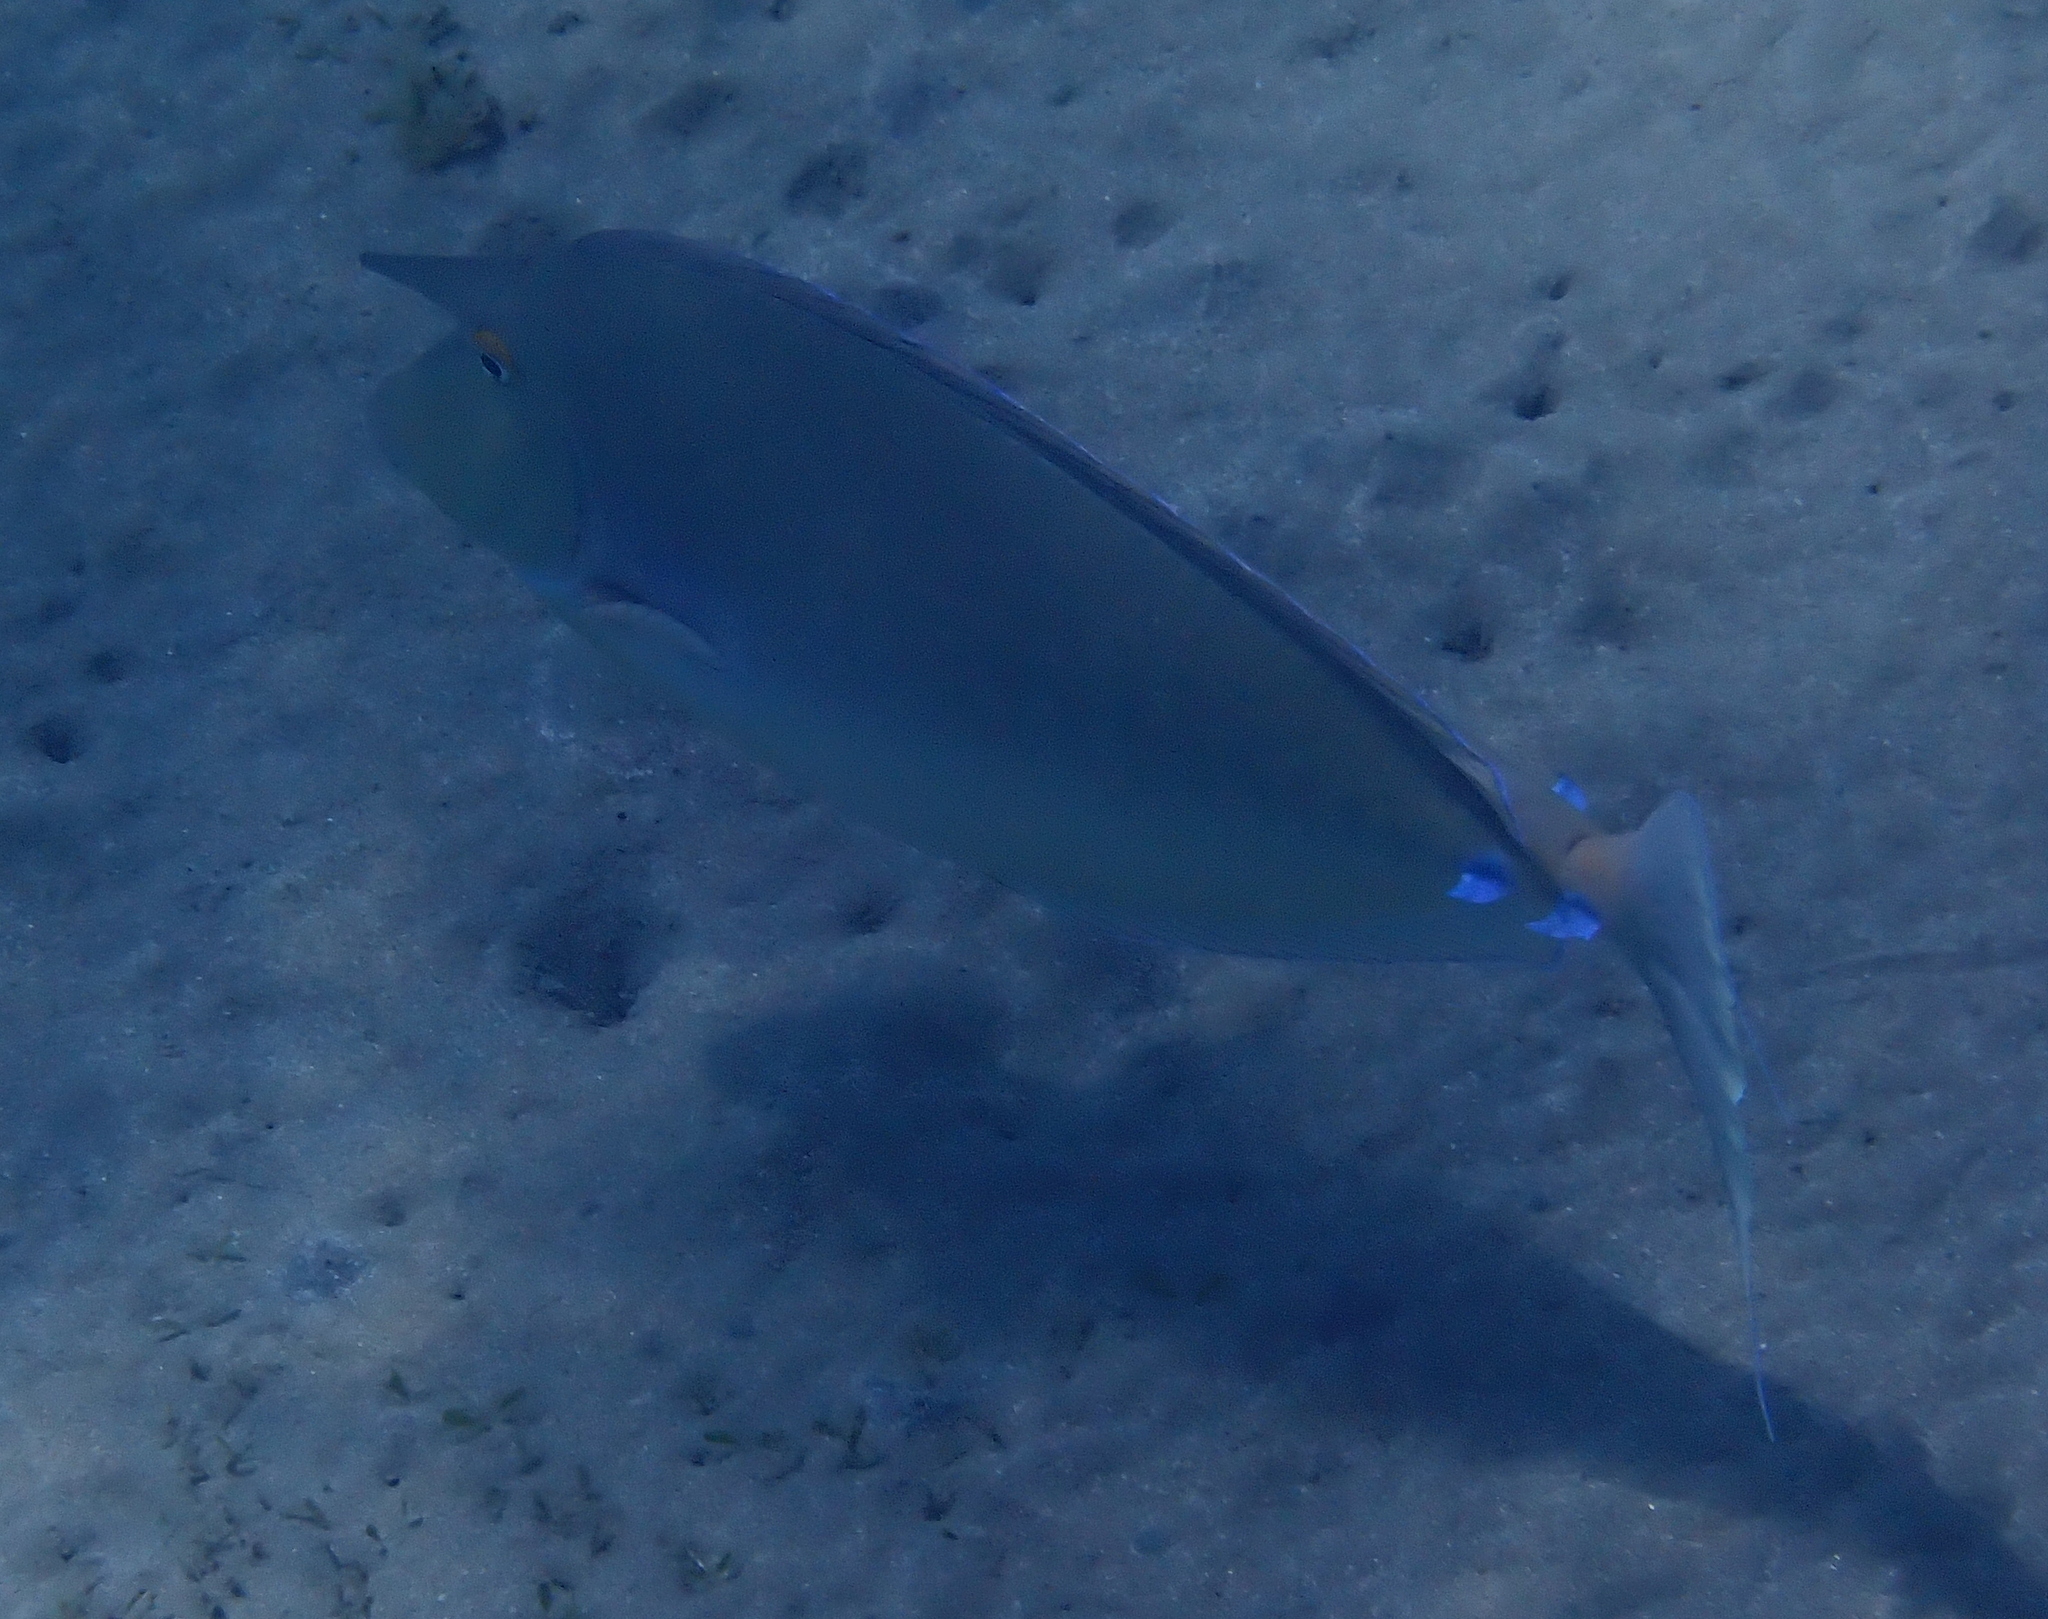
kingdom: Animalia
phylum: Chordata
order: Perciformes
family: Acanthuridae
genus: Naso
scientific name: Naso unicornis
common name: Bluespine unicornfish
